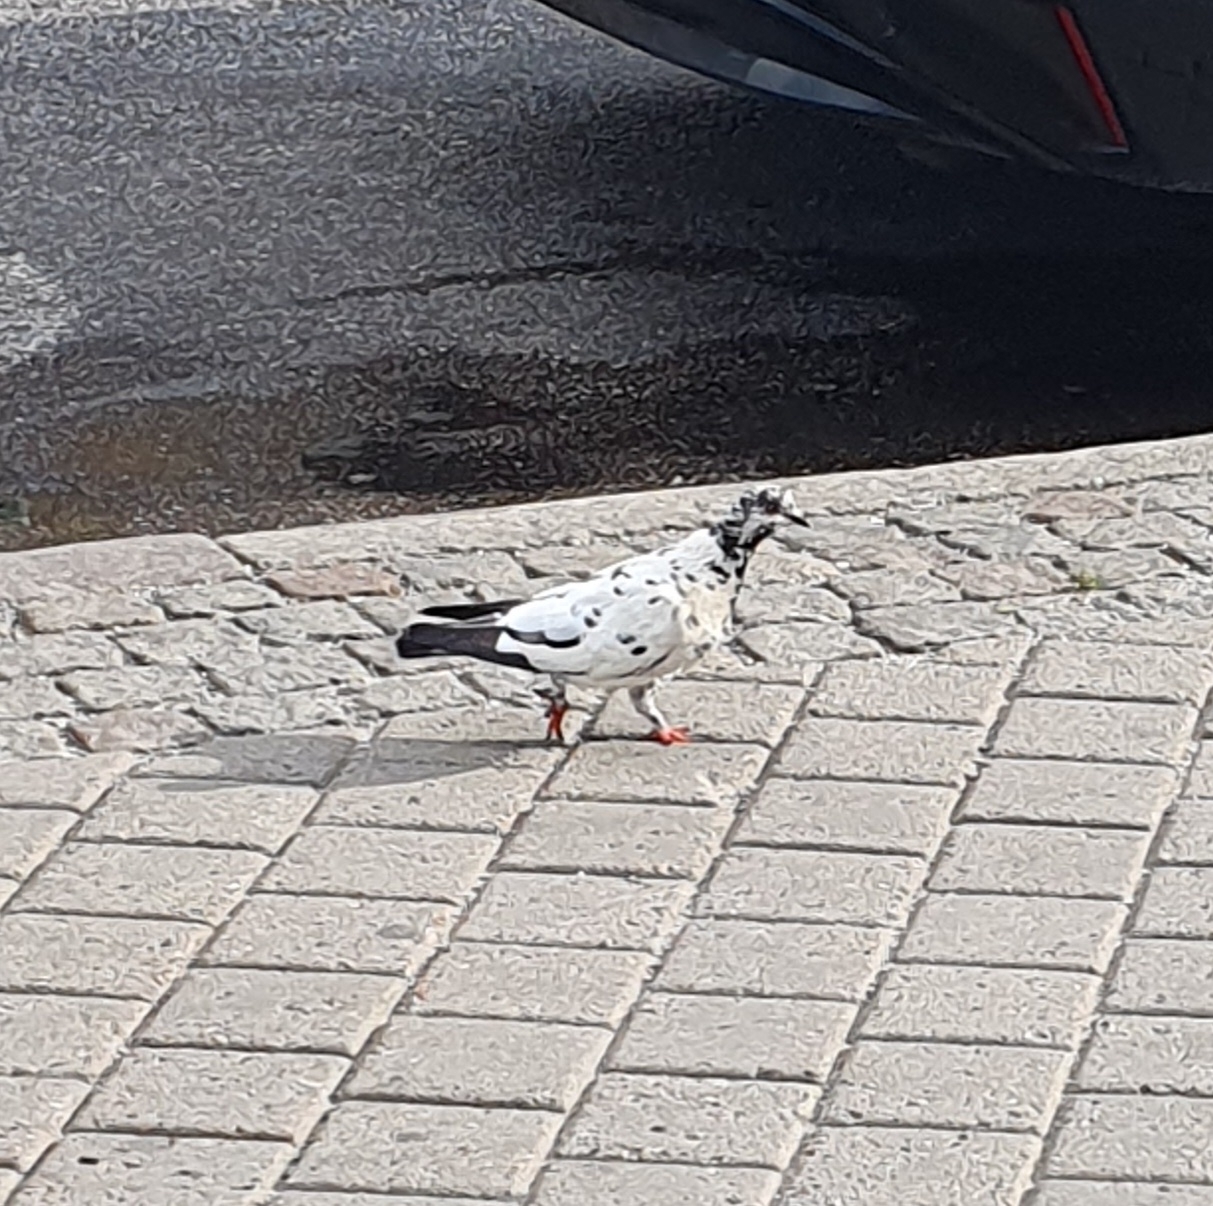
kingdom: Animalia
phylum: Chordata
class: Aves
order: Columbiformes
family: Columbidae
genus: Columba
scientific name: Columba livia
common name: Rock pigeon
